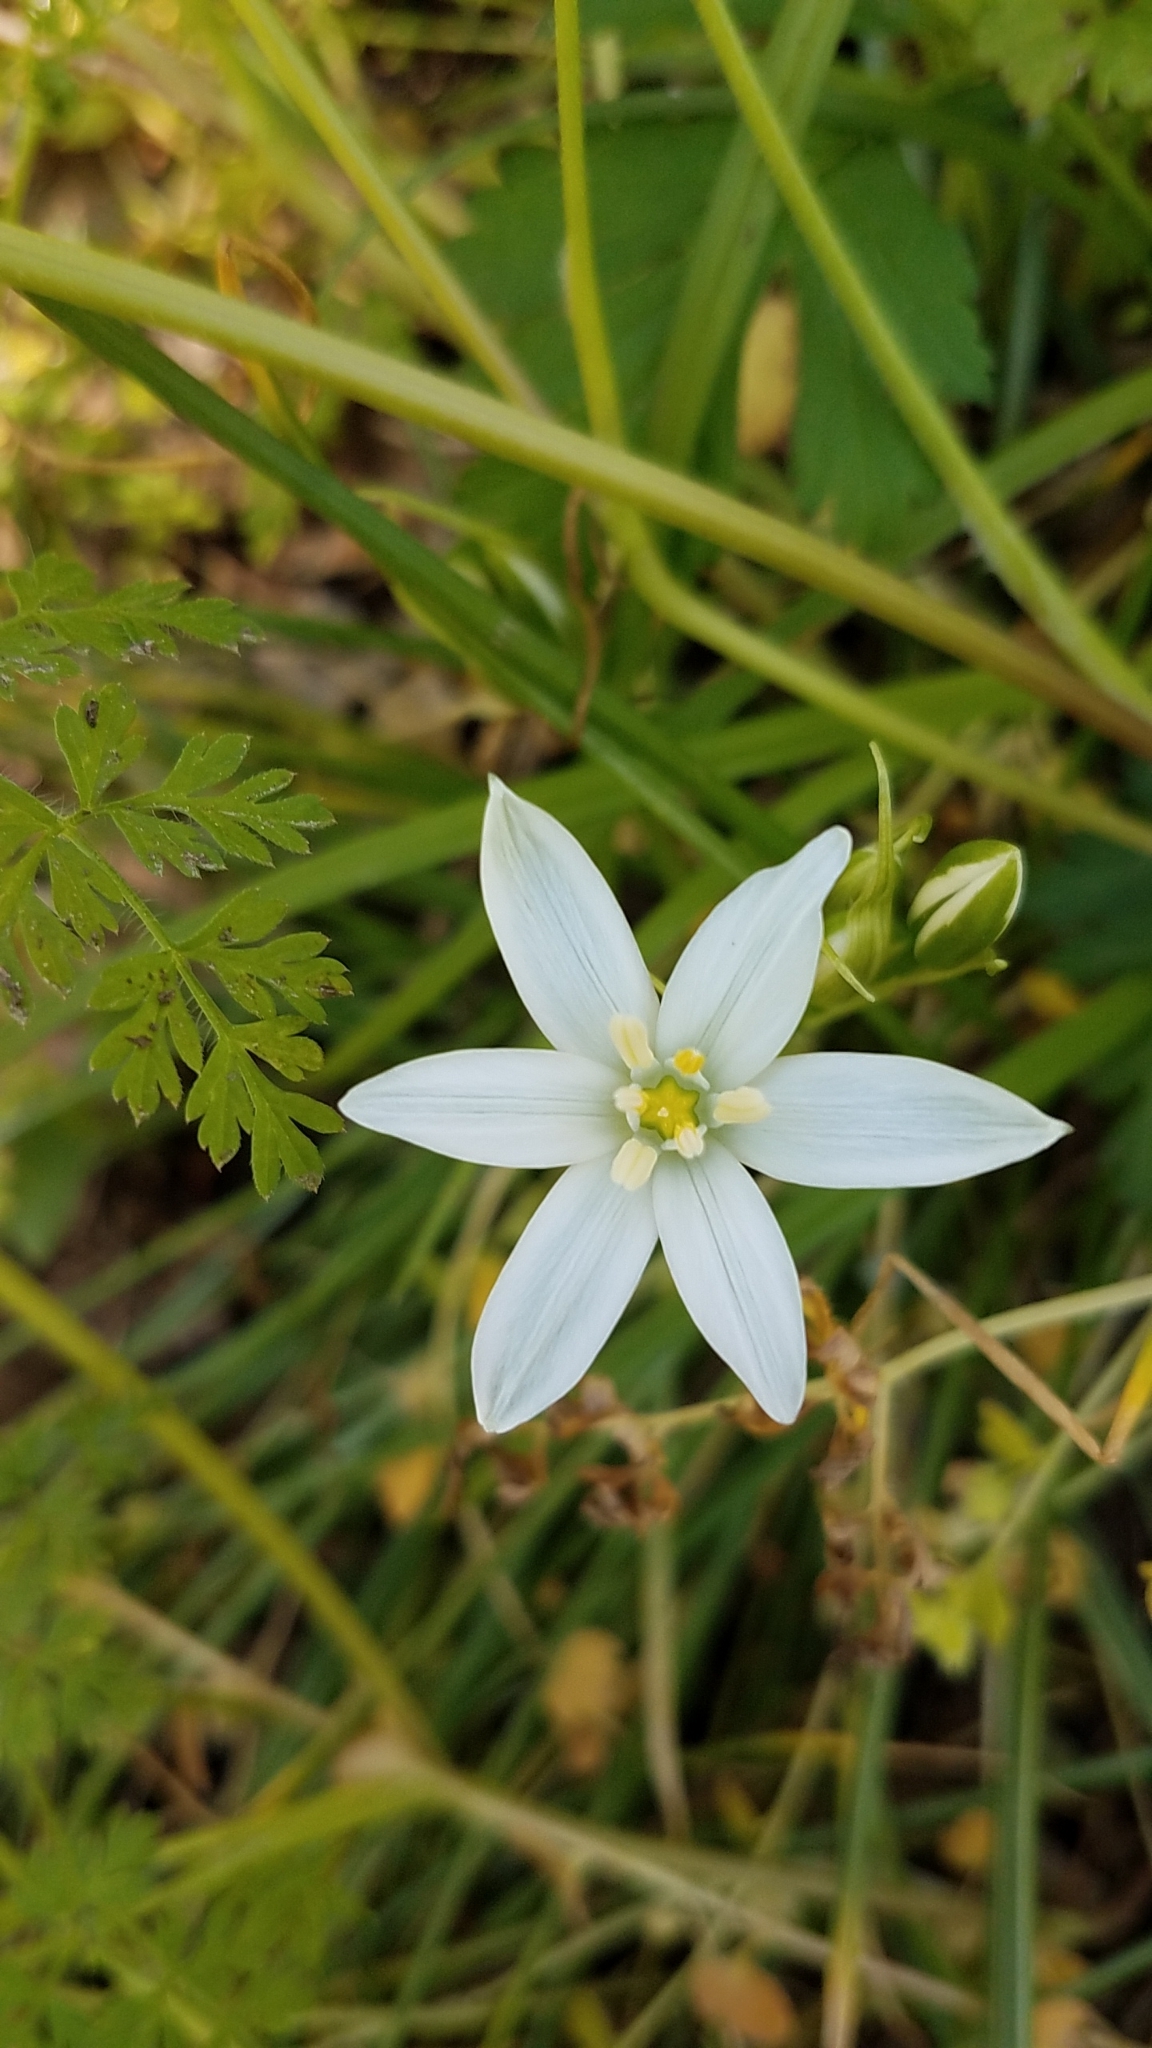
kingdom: Plantae
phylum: Tracheophyta
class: Liliopsida
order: Asparagales
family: Asparagaceae
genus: Ornithogalum
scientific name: Ornithogalum umbellatum
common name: Garden star-of-bethlehem
